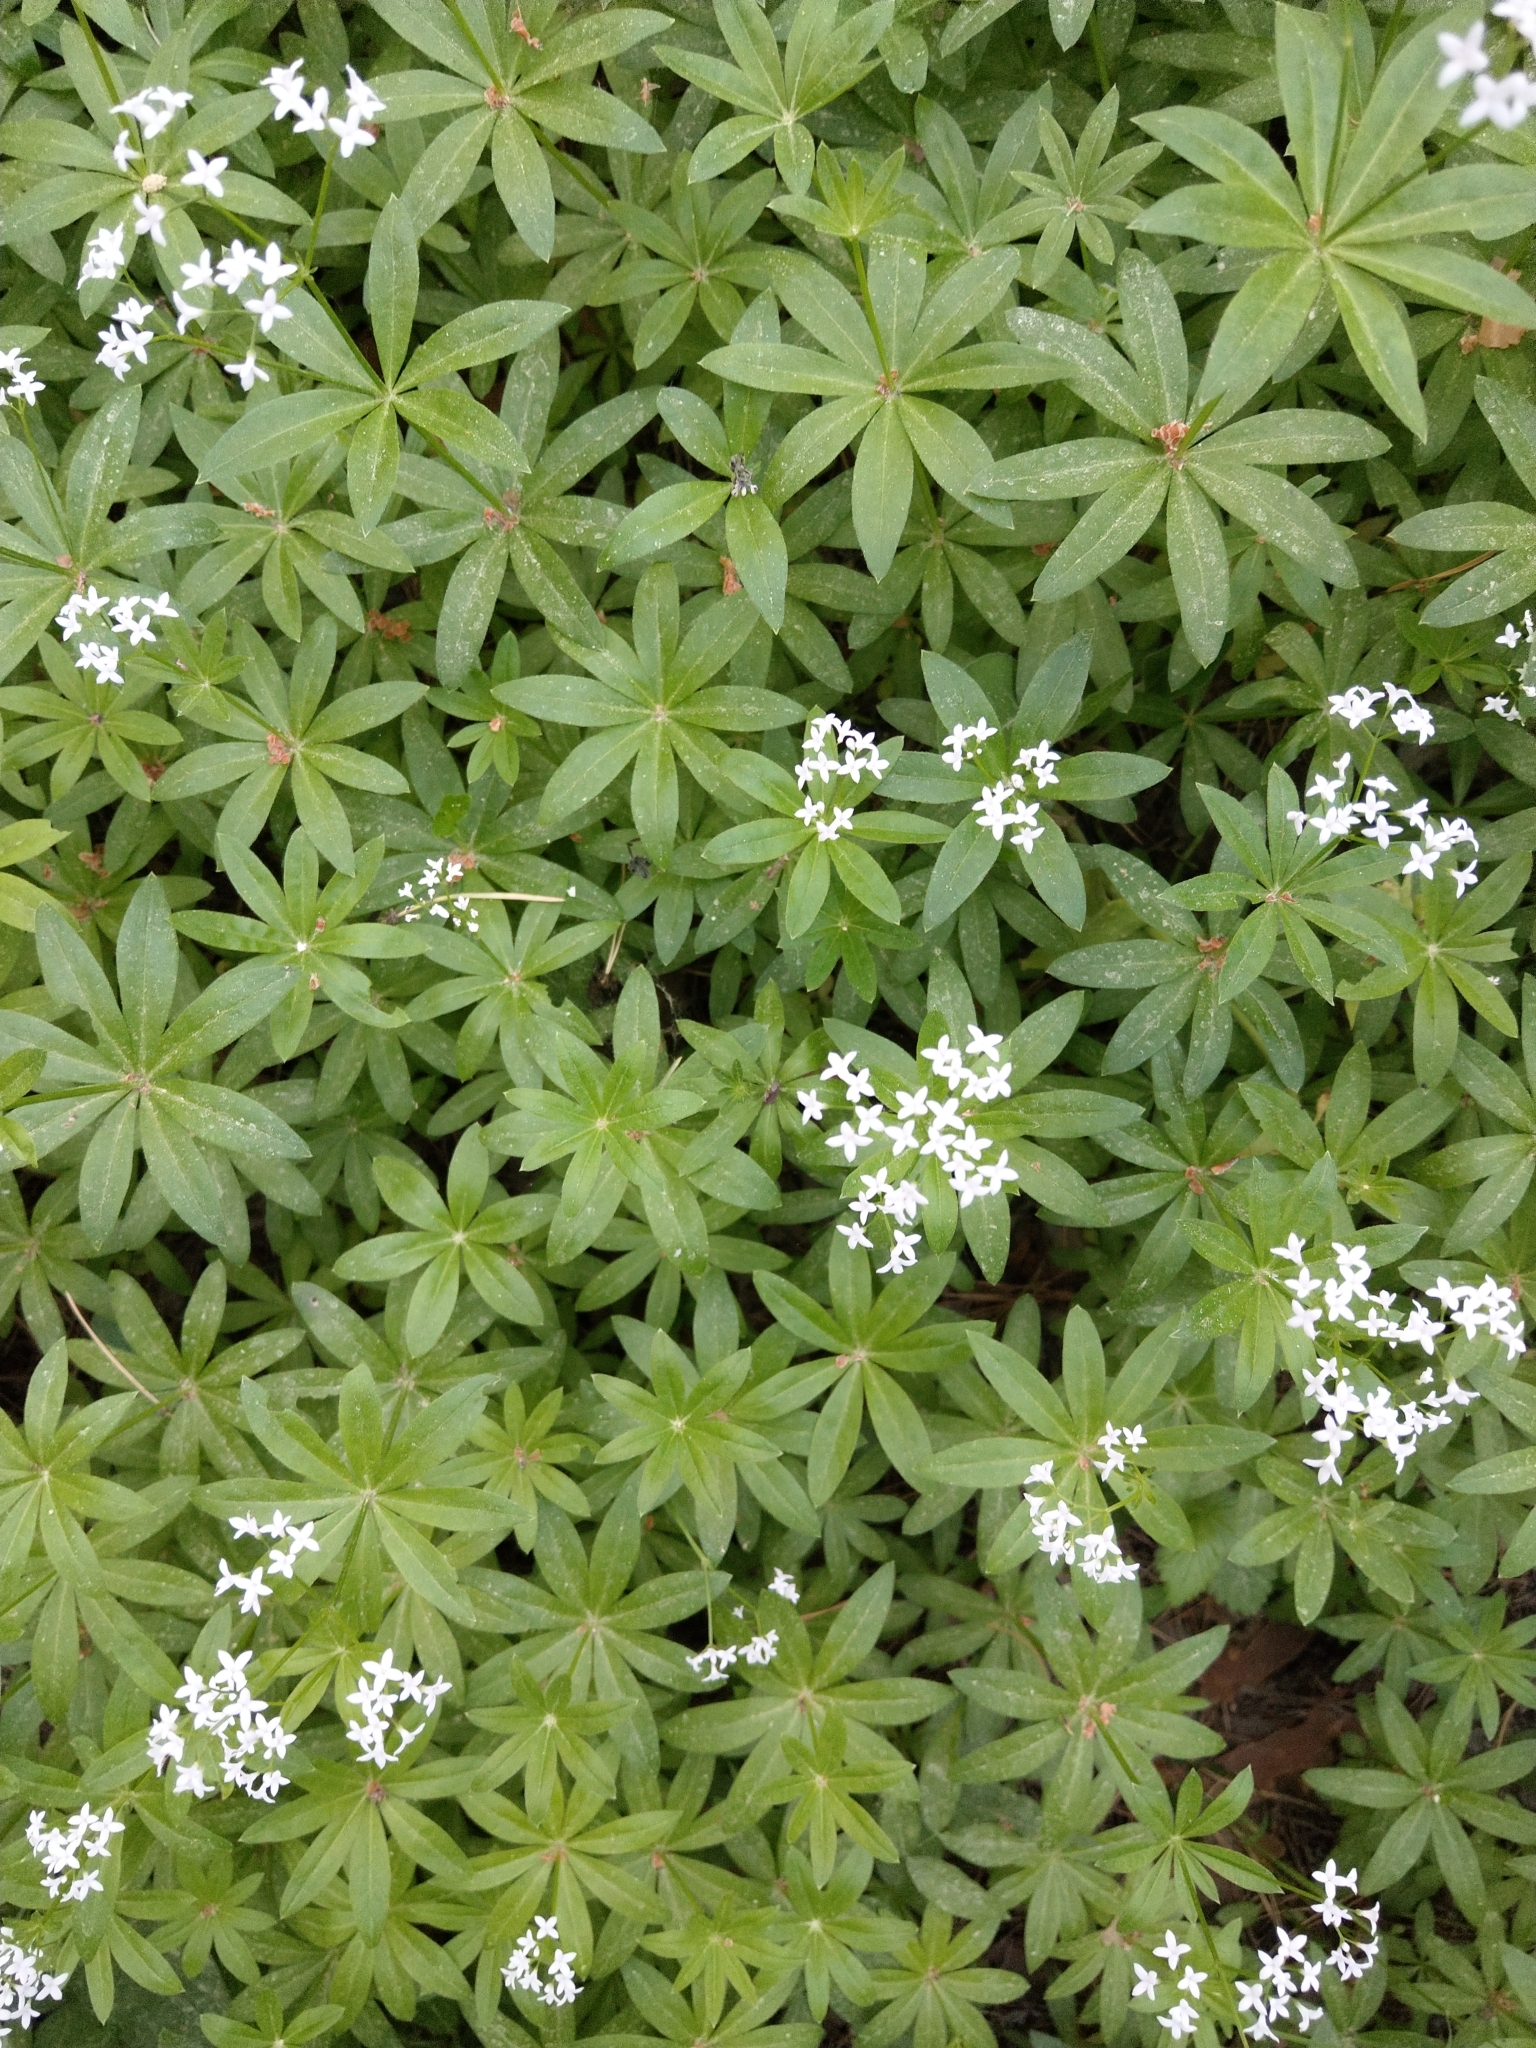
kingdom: Plantae
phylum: Tracheophyta
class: Magnoliopsida
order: Gentianales
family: Rubiaceae
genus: Galium
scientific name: Galium odoratum
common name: Sweet woodruff
